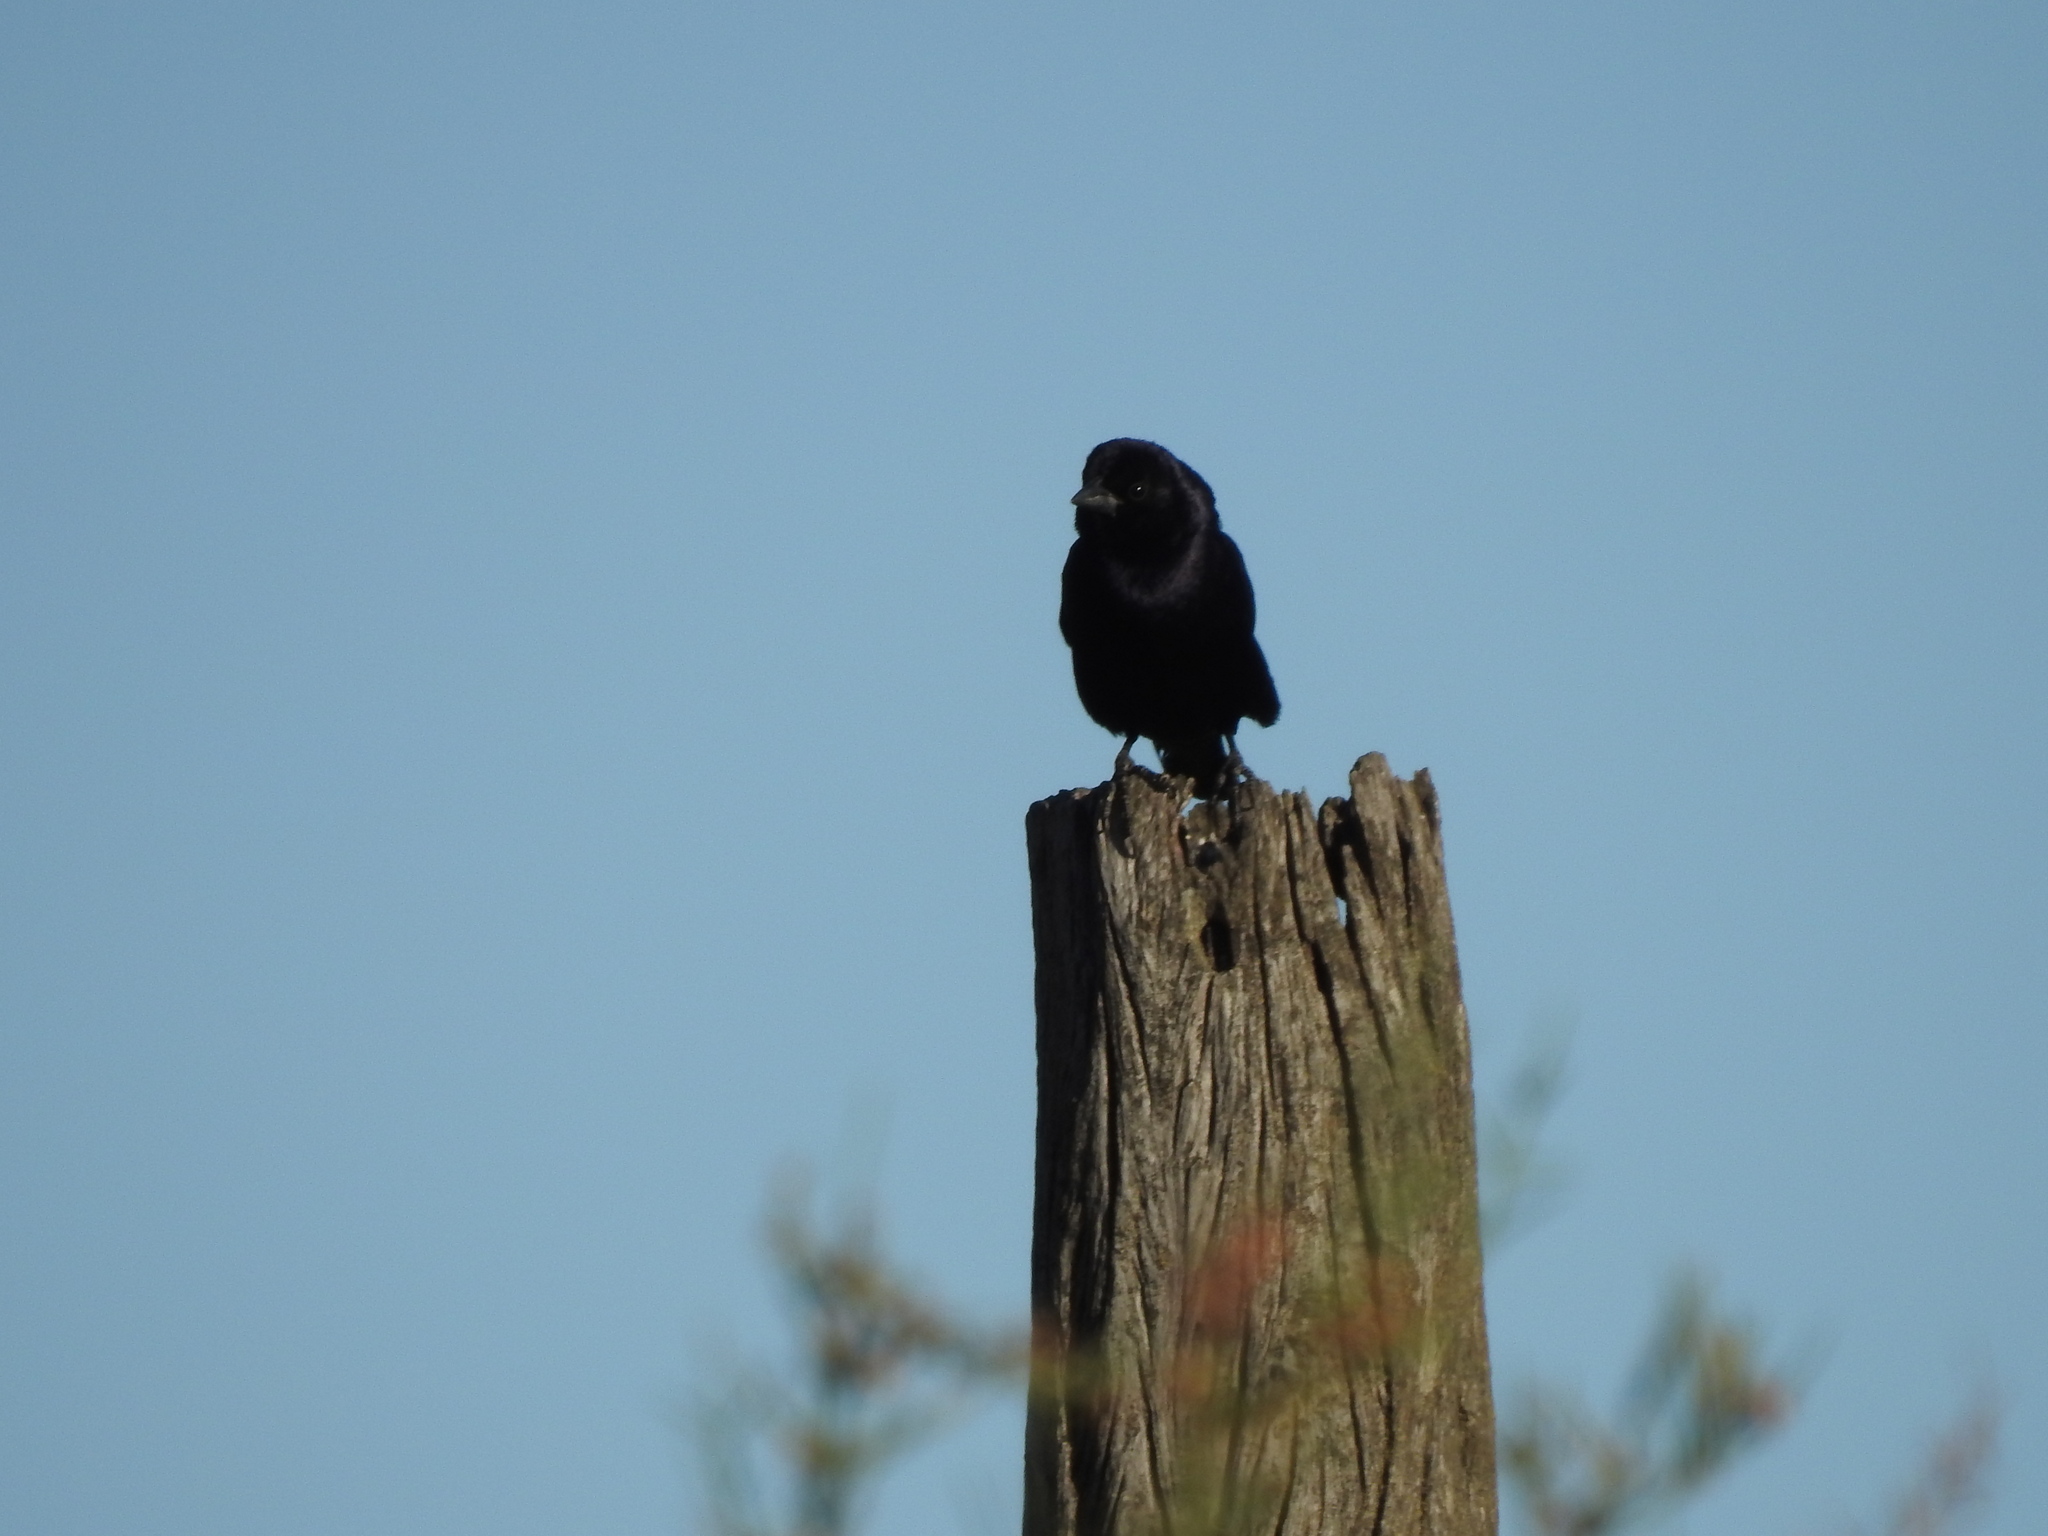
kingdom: Animalia
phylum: Chordata
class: Aves
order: Passeriformes
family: Icteridae
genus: Molothrus
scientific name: Molothrus bonariensis
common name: Shiny cowbird
